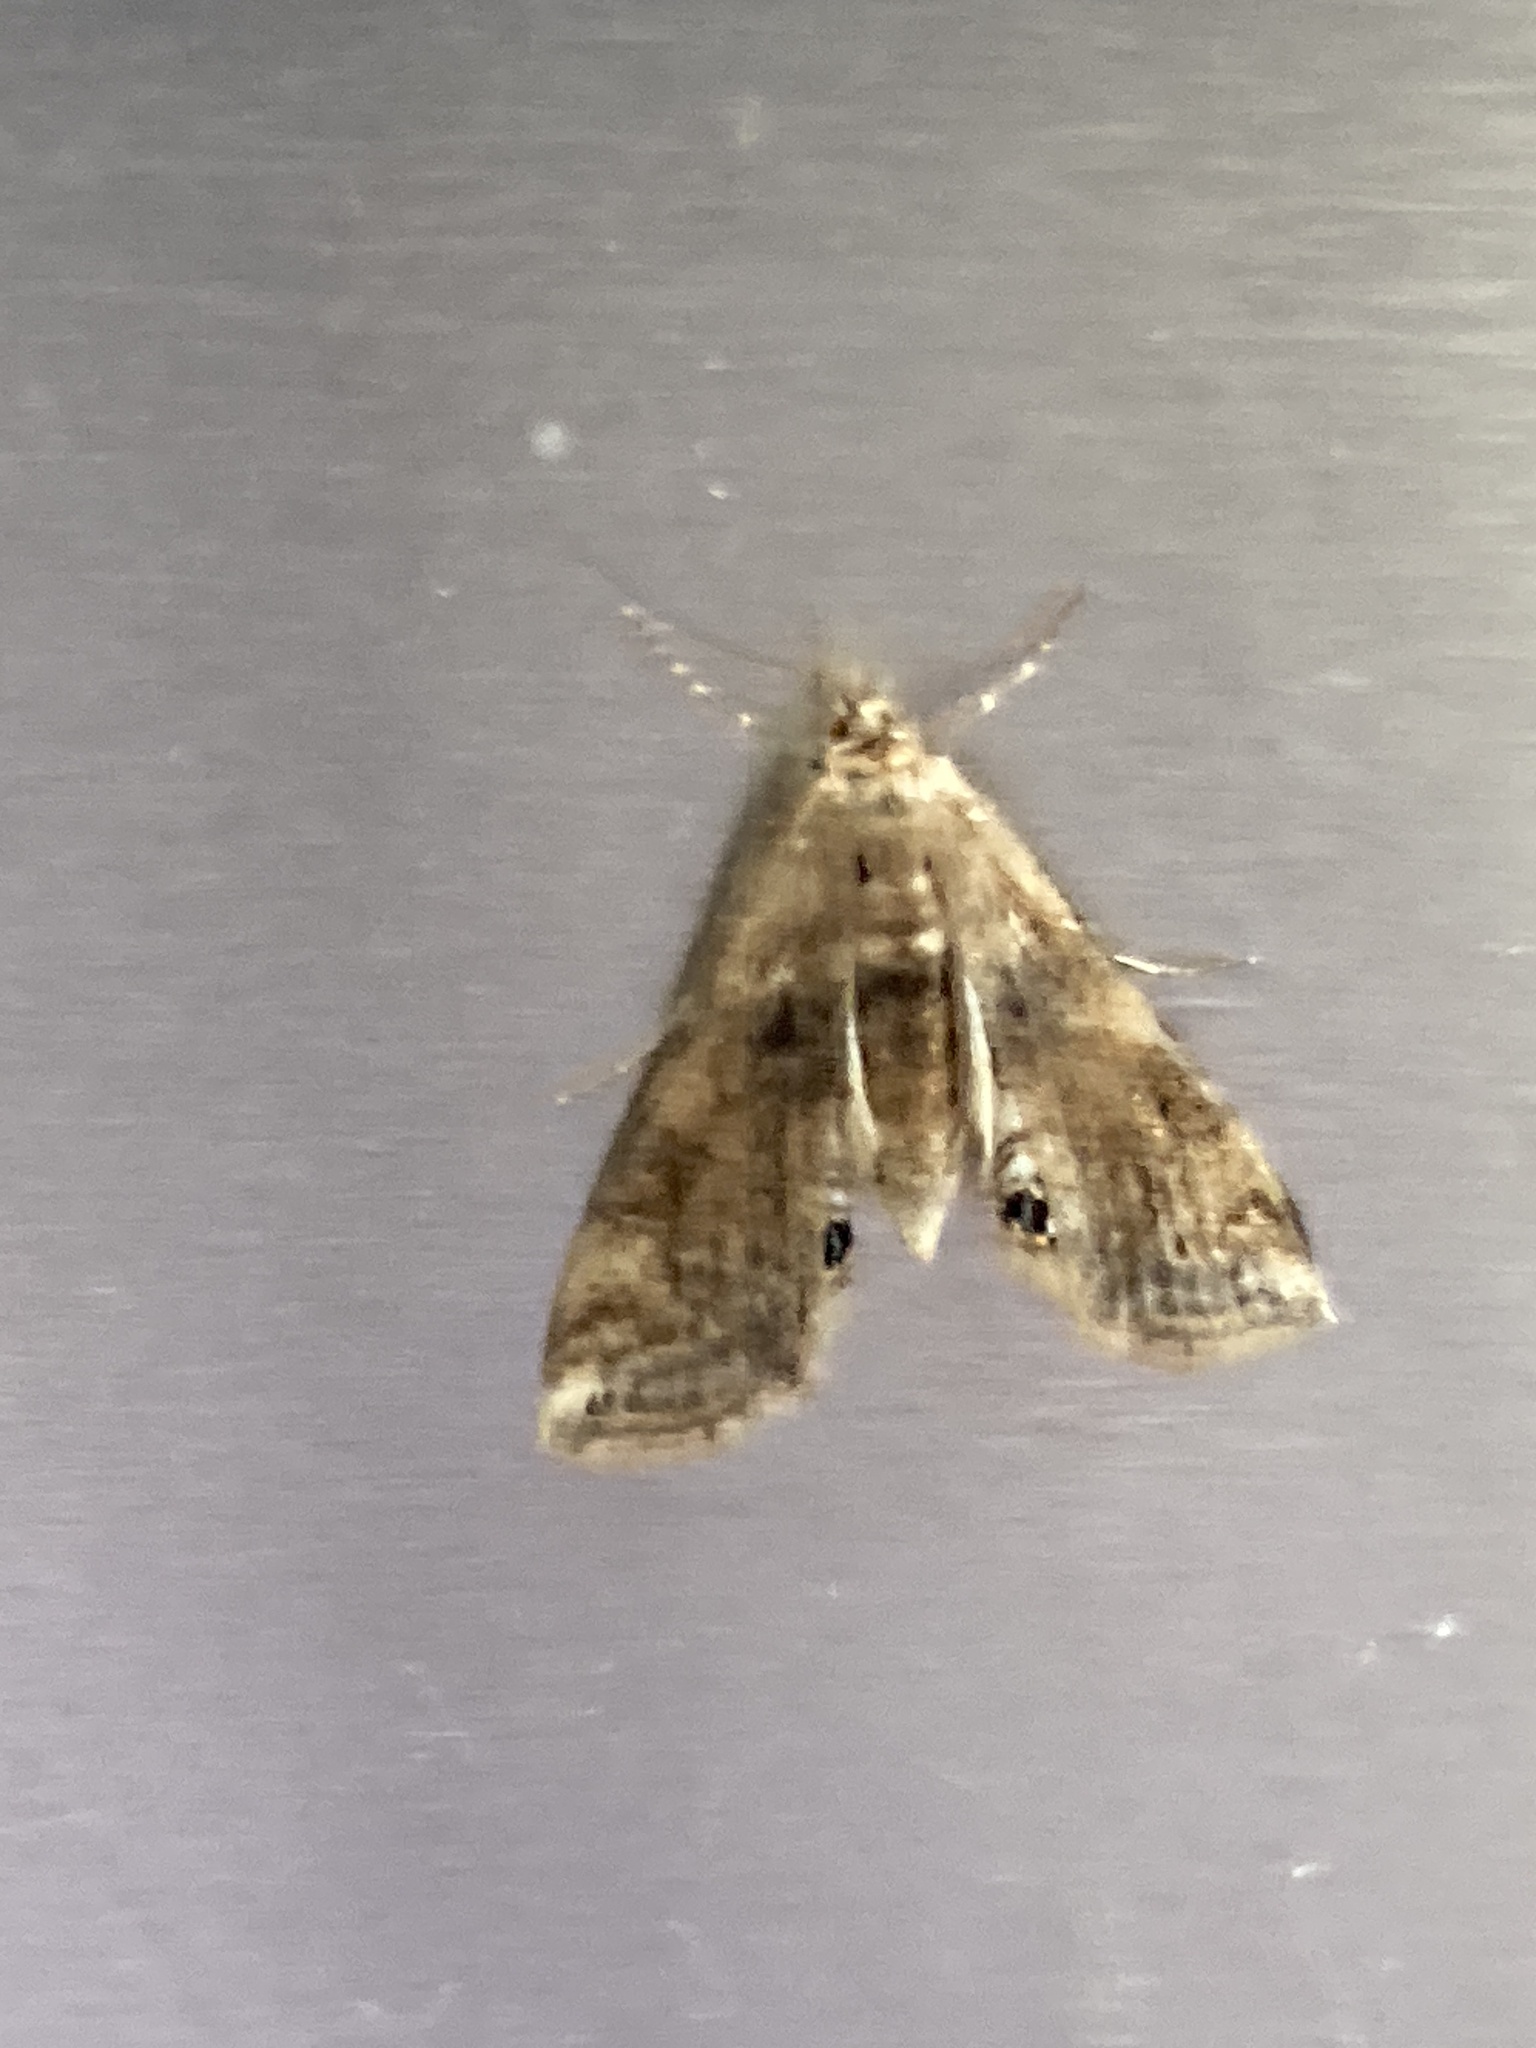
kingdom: Animalia
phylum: Arthropoda
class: Insecta
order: Lepidoptera
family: Crambidae
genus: Cataclysta
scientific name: Cataclysta lemnata
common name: Small china-mark
